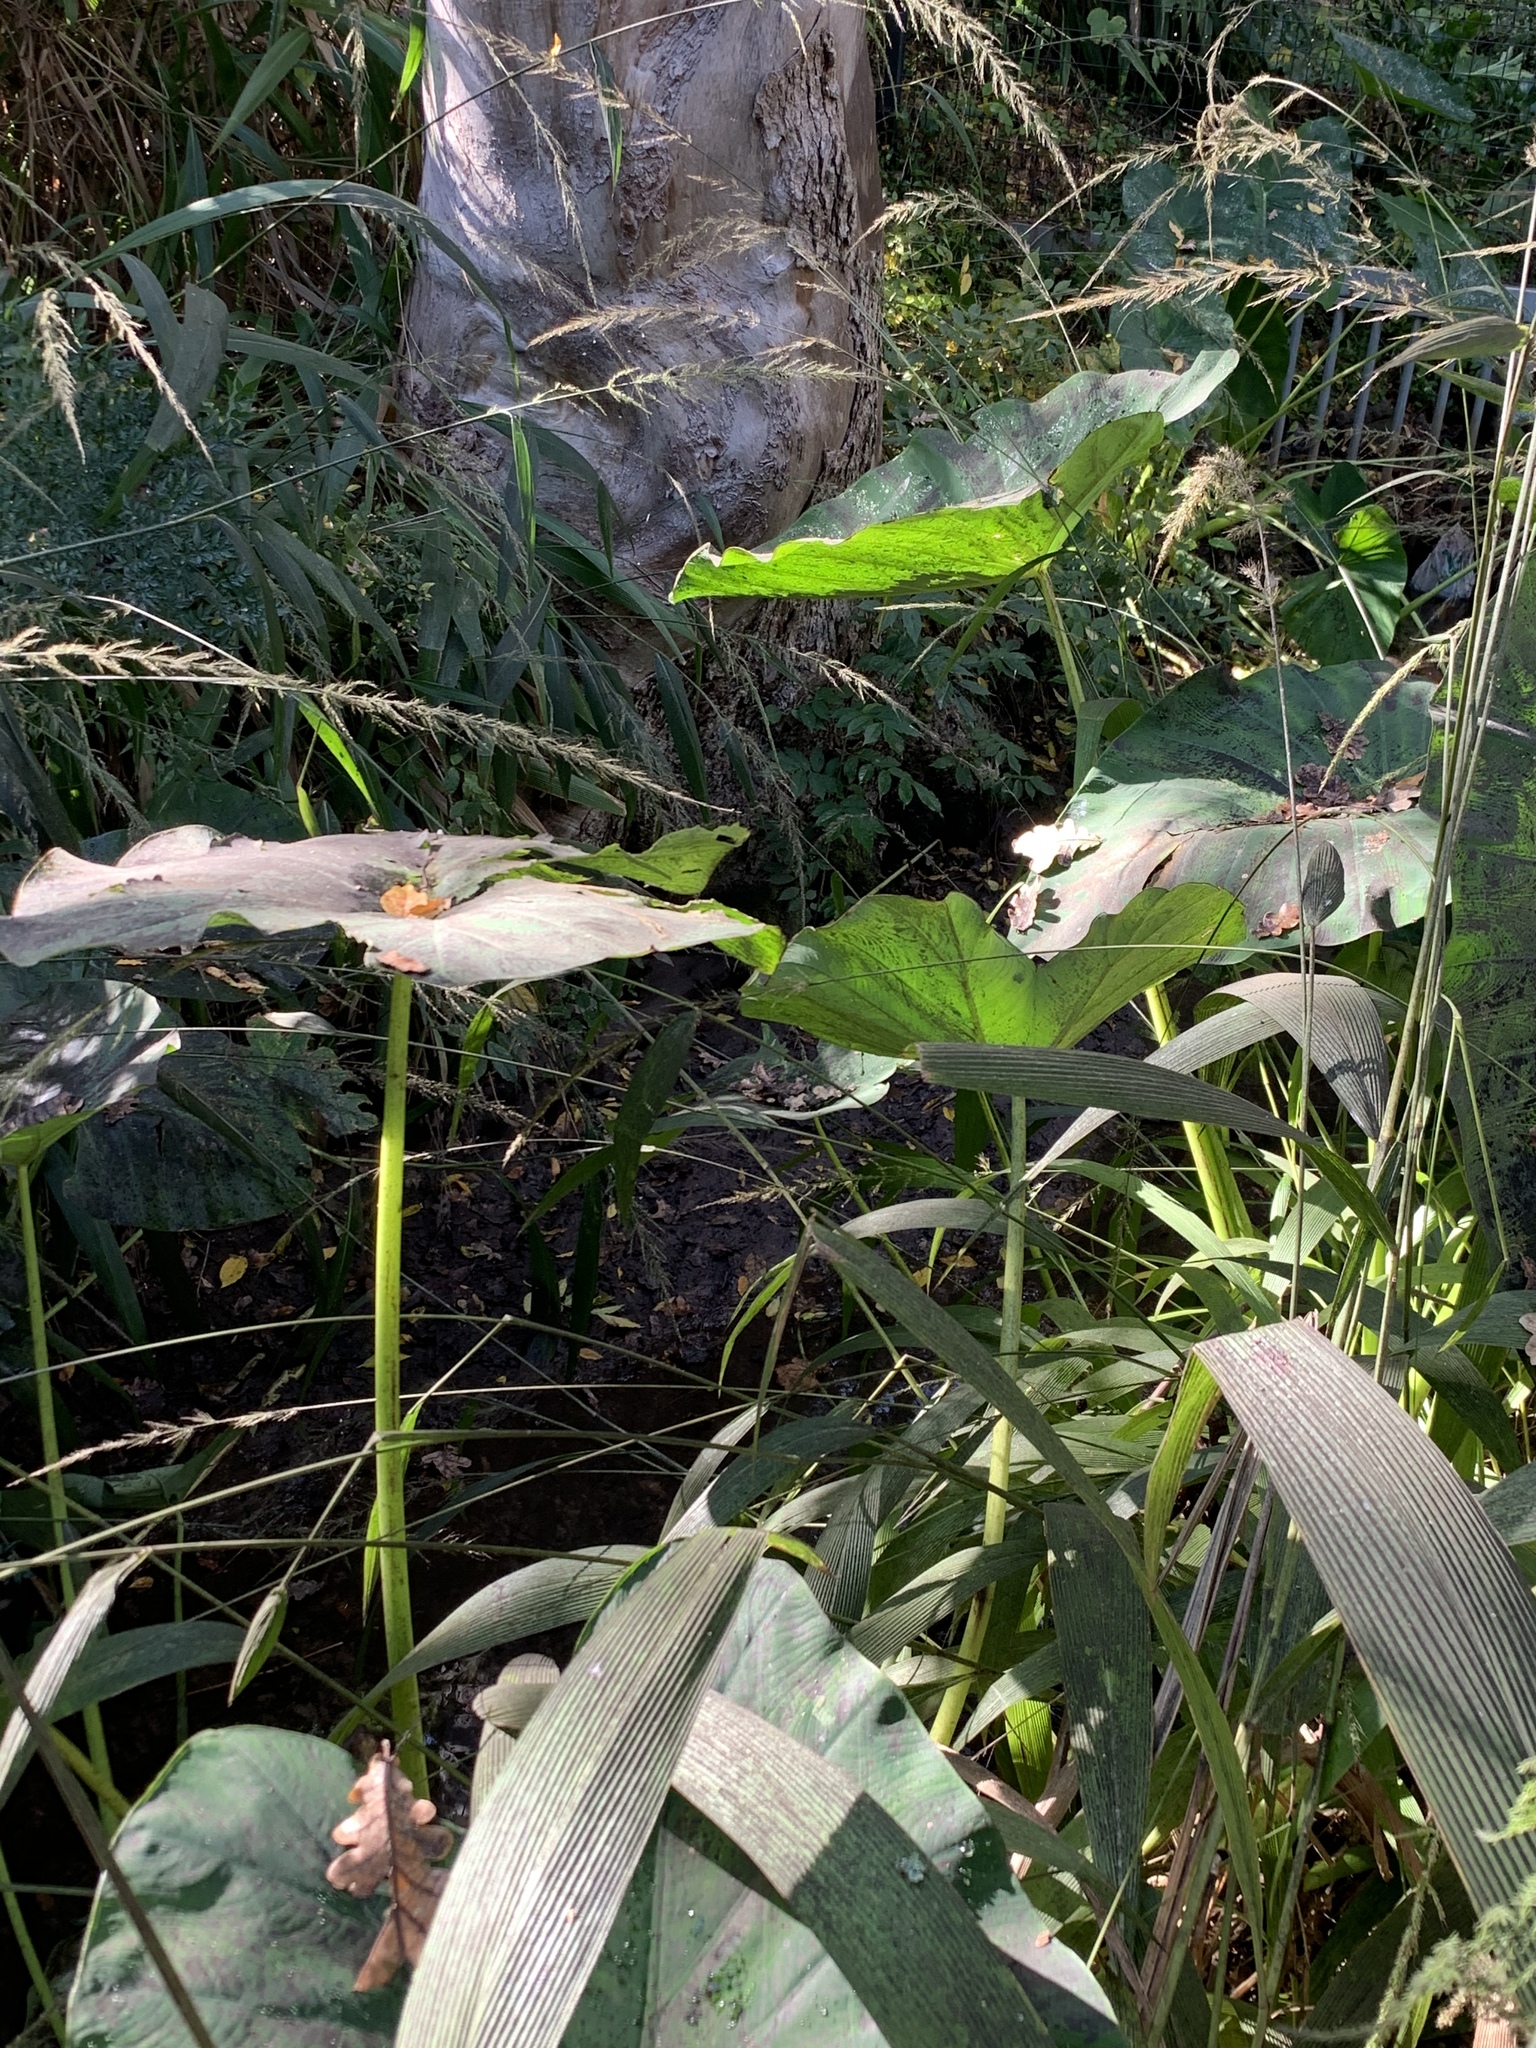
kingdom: Plantae
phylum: Tracheophyta
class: Liliopsida
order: Alismatales
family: Araceae
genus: Colocasia
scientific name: Colocasia esculenta
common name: Taro
